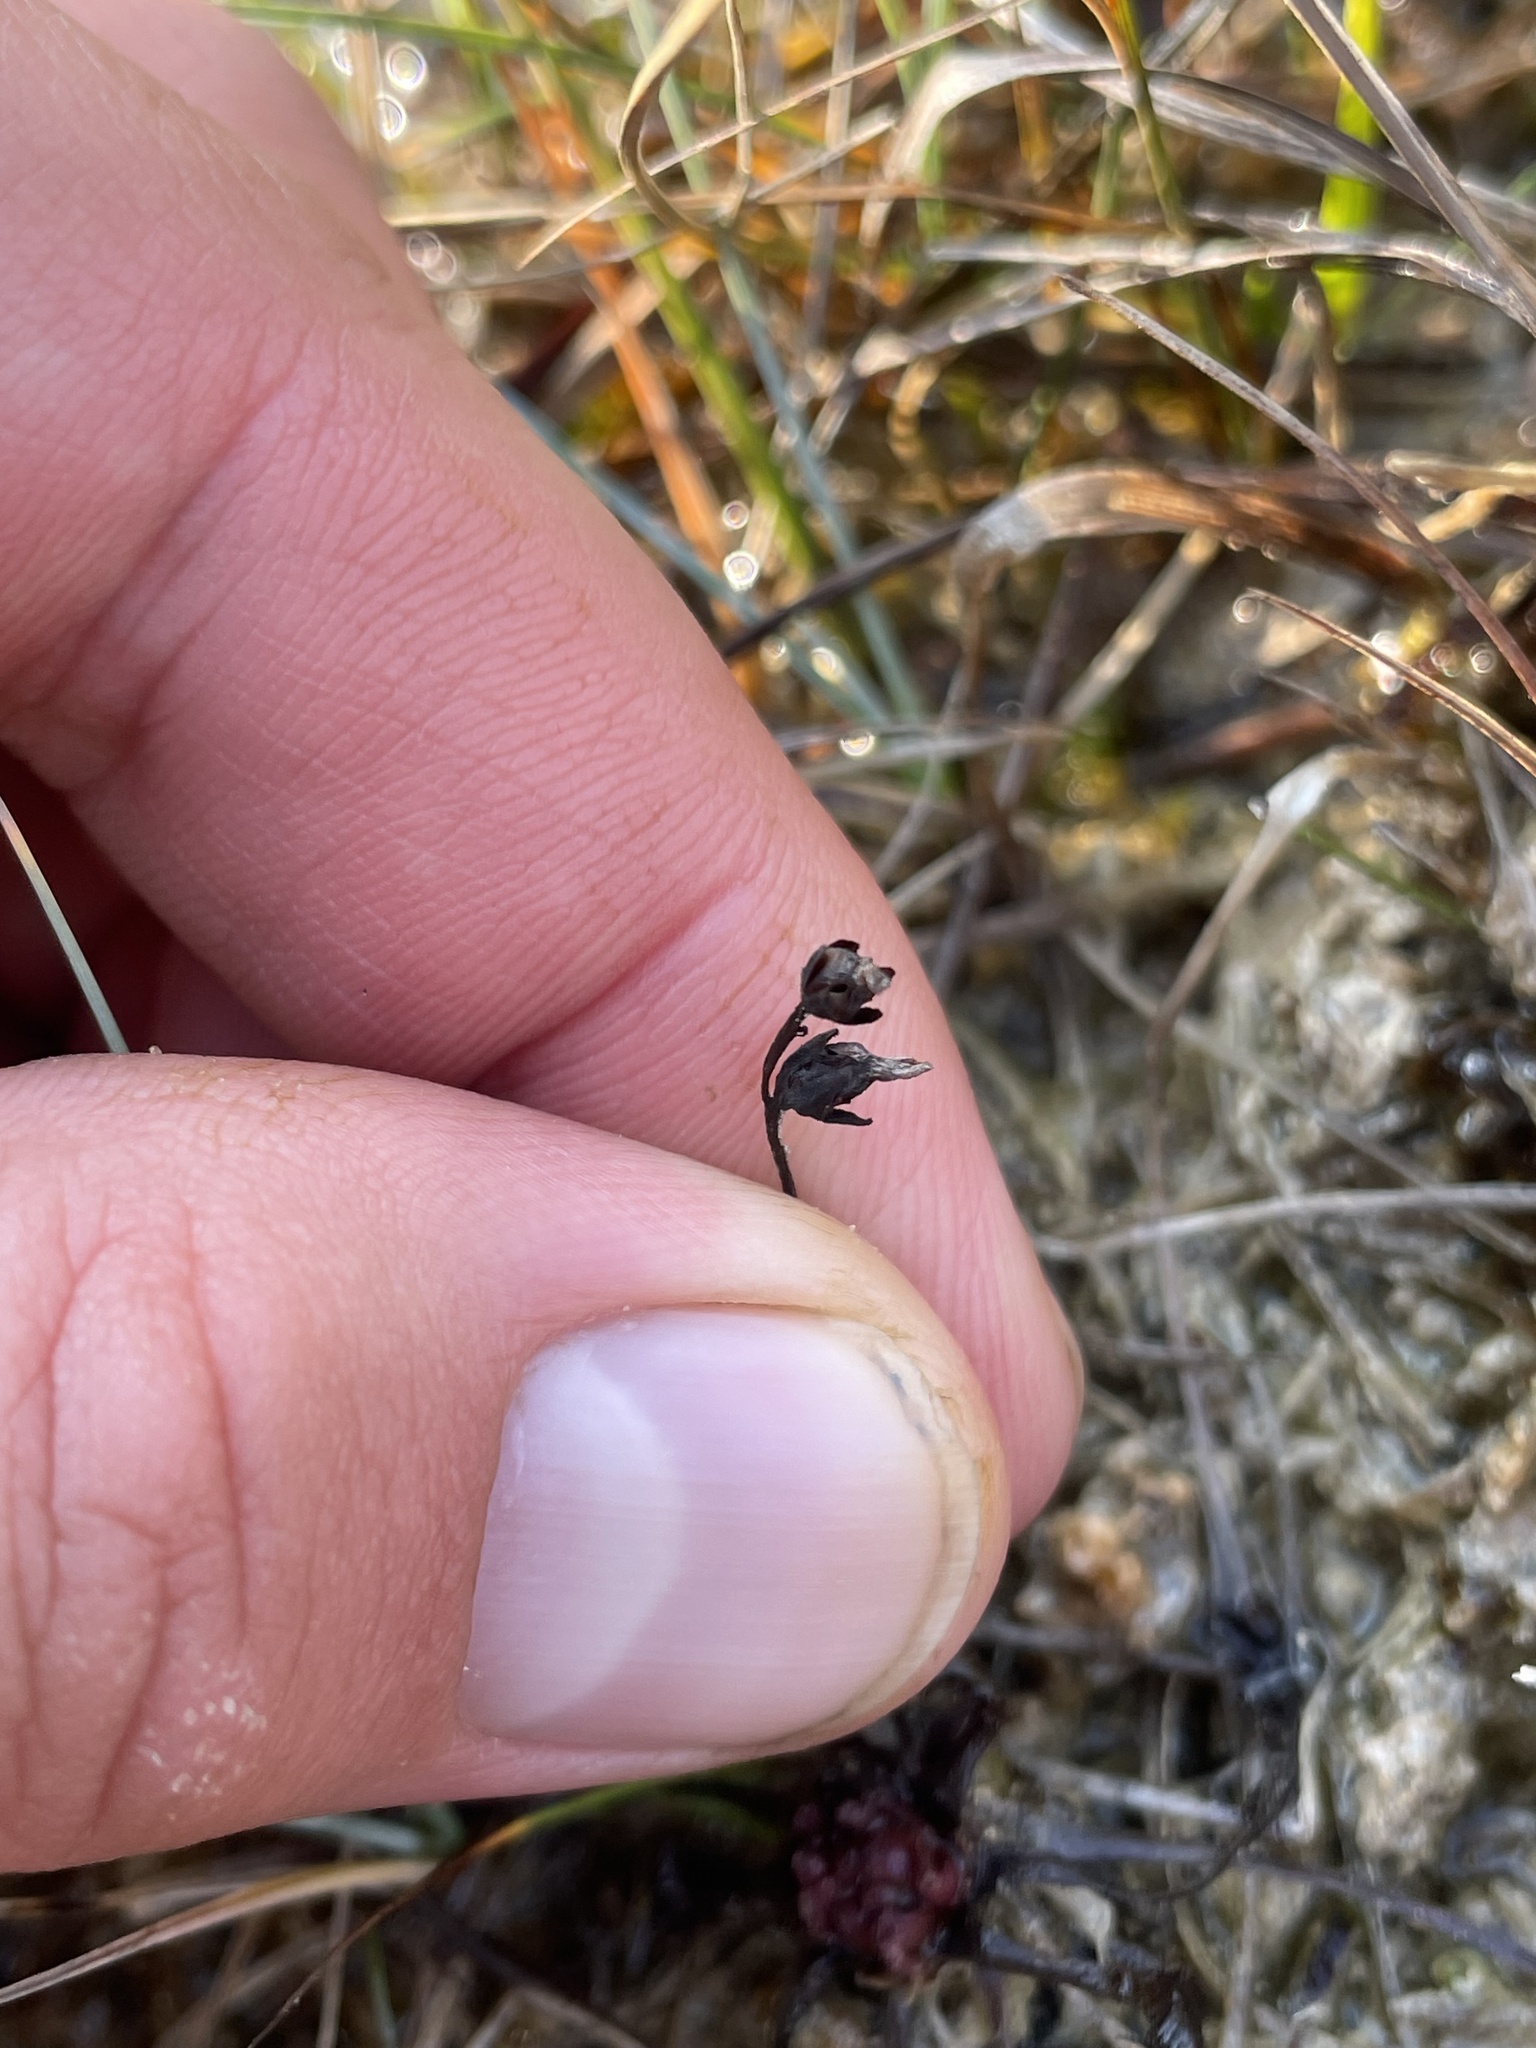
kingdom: Plantae
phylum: Tracheophyta
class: Magnoliopsida
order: Caryophyllales
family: Droseraceae
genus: Drosera
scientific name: Drosera linearis
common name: Linear-leaved sundew
